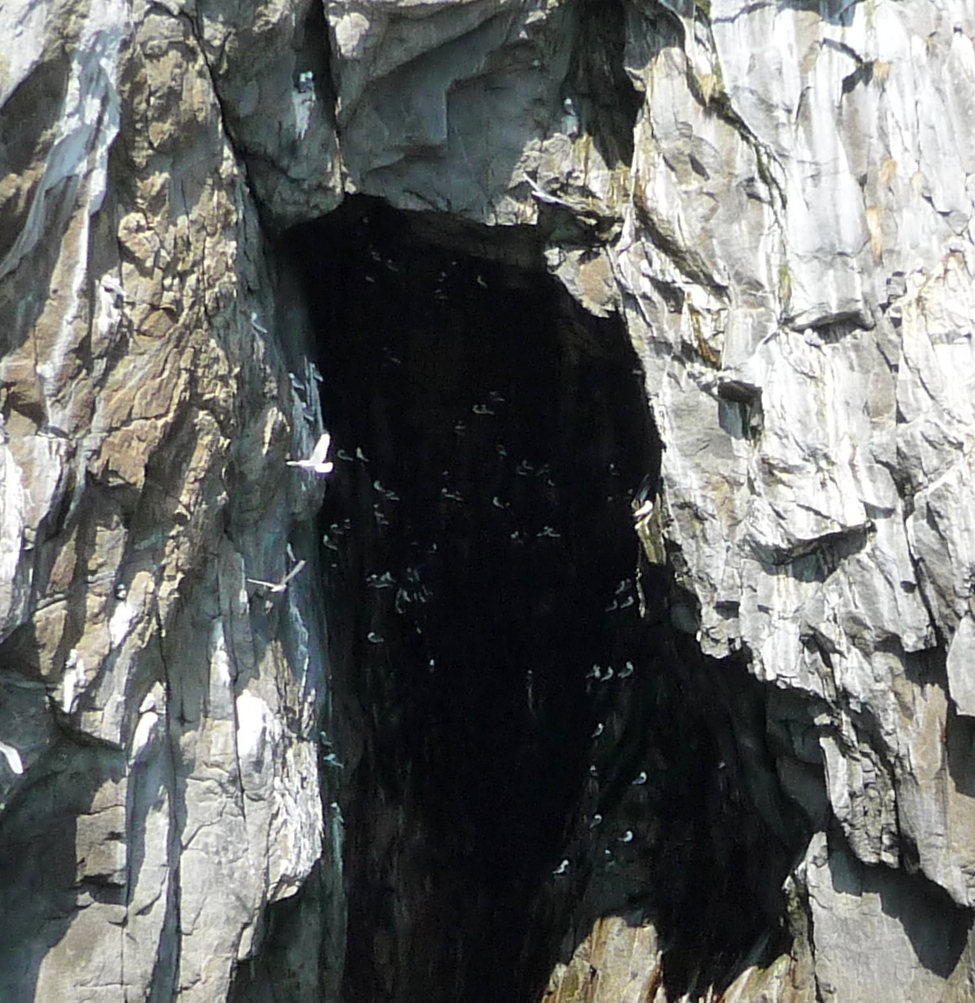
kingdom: Animalia
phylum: Chordata
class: Aves
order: Charadriiformes
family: Laridae
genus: Rissa
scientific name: Rissa tridactyla
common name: Black-legged kittiwake
